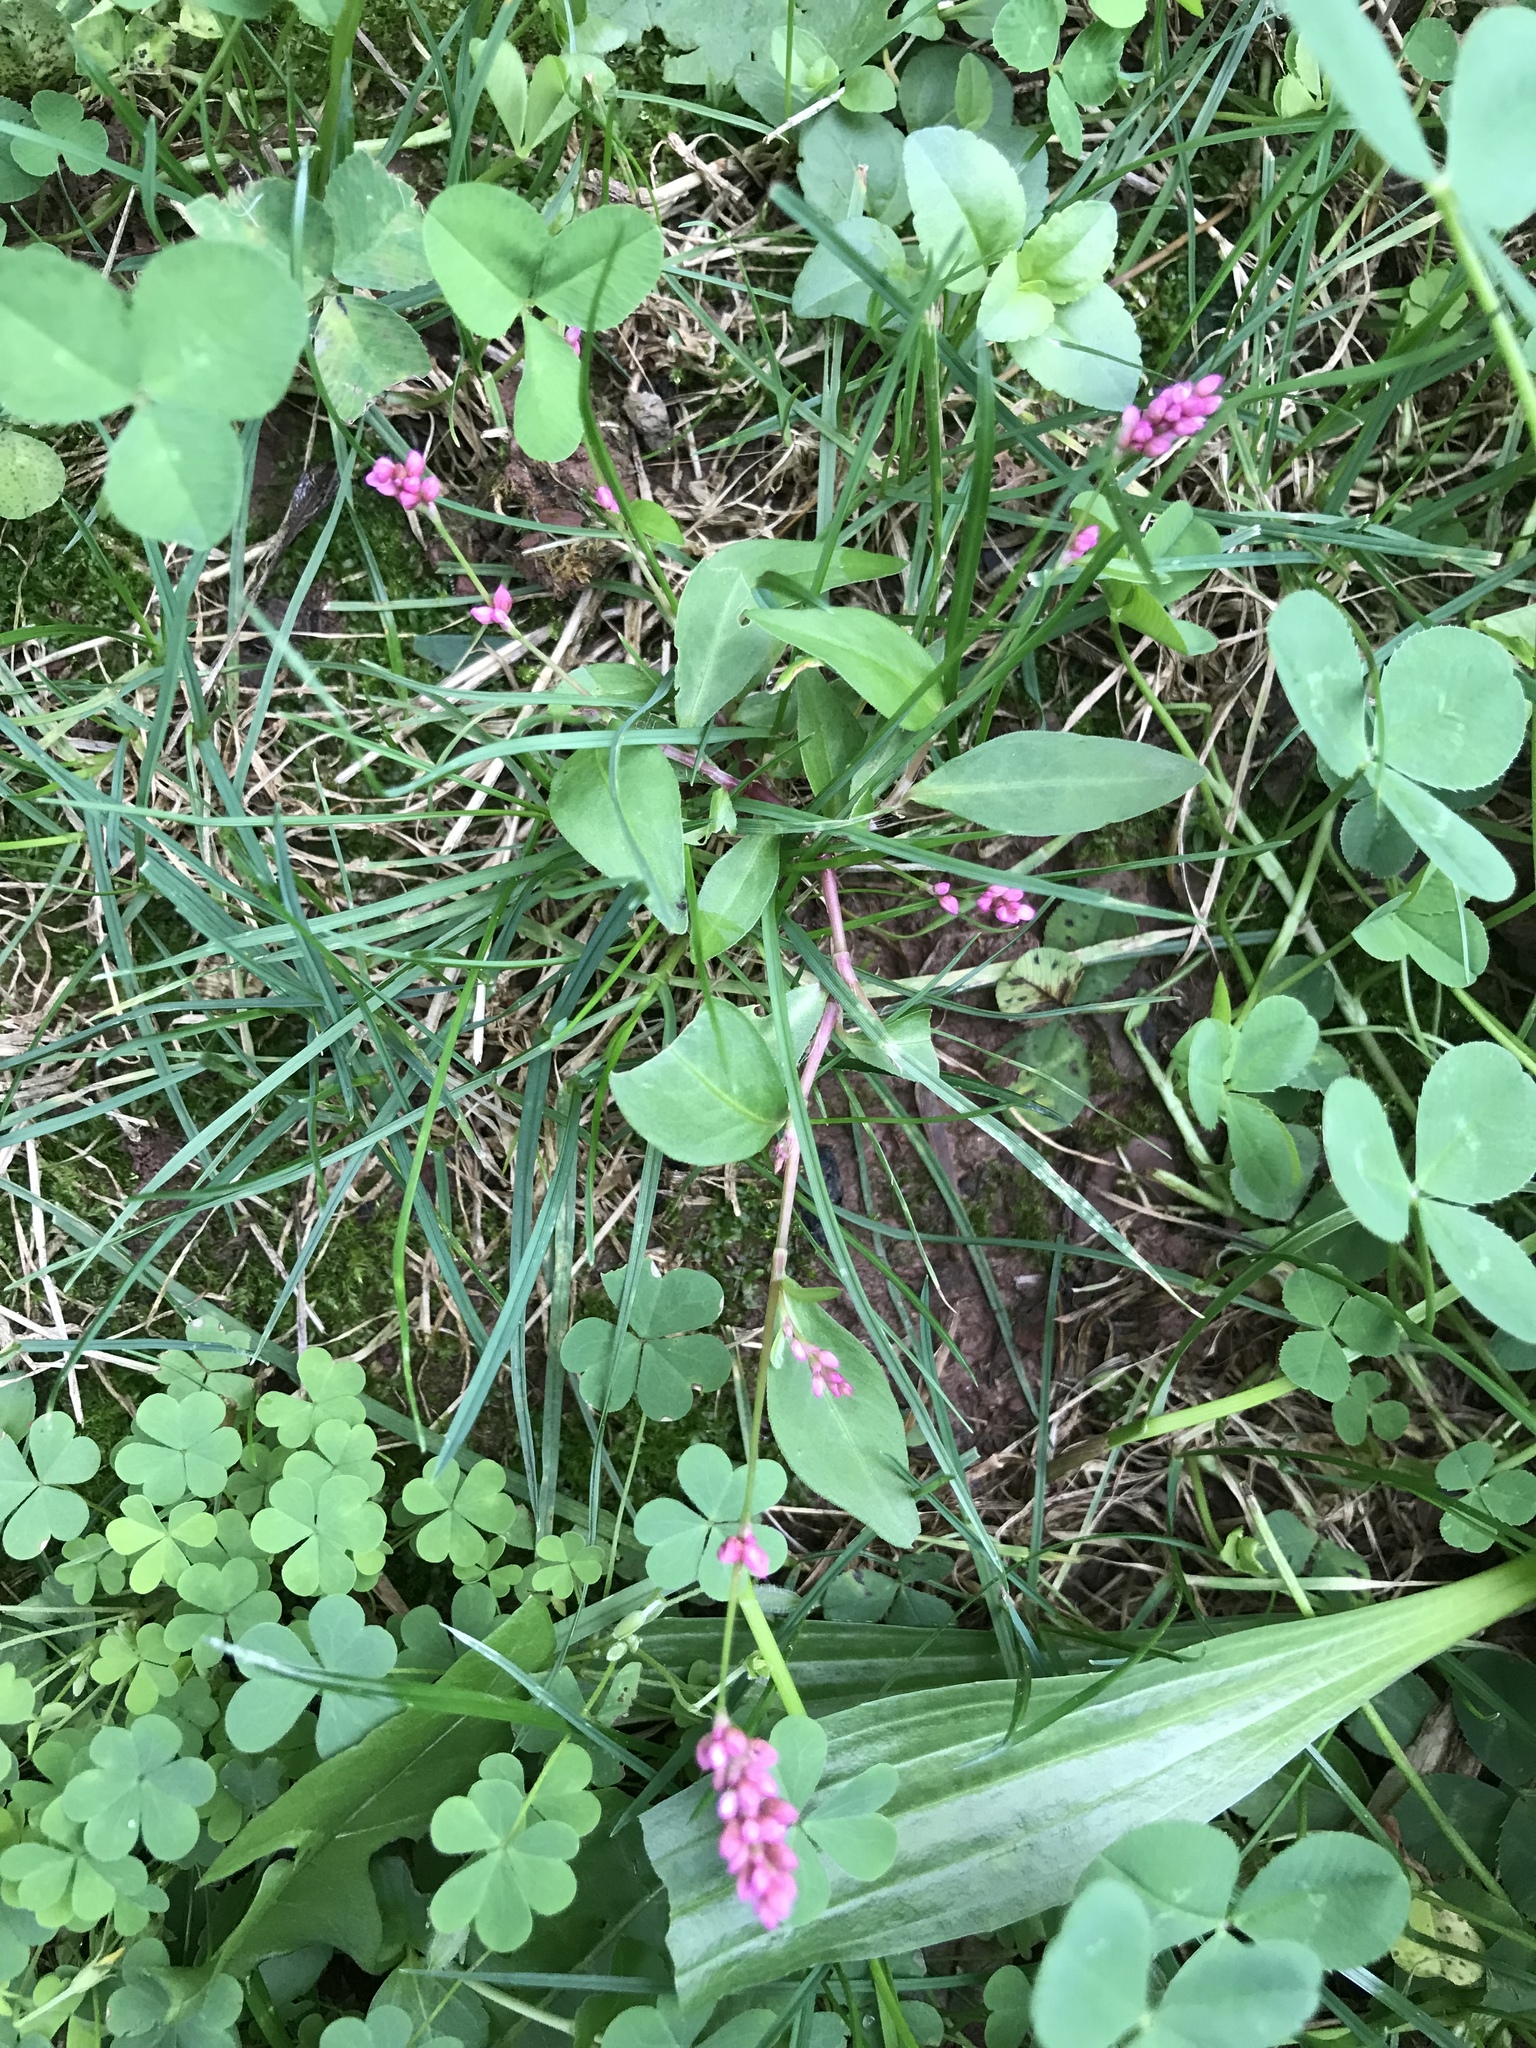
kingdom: Plantae
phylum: Tracheophyta
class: Magnoliopsida
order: Caryophyllales
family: Polygonaceae
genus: Persicaria
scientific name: Persicaria longiseta
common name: Bristly lady's-thumb
